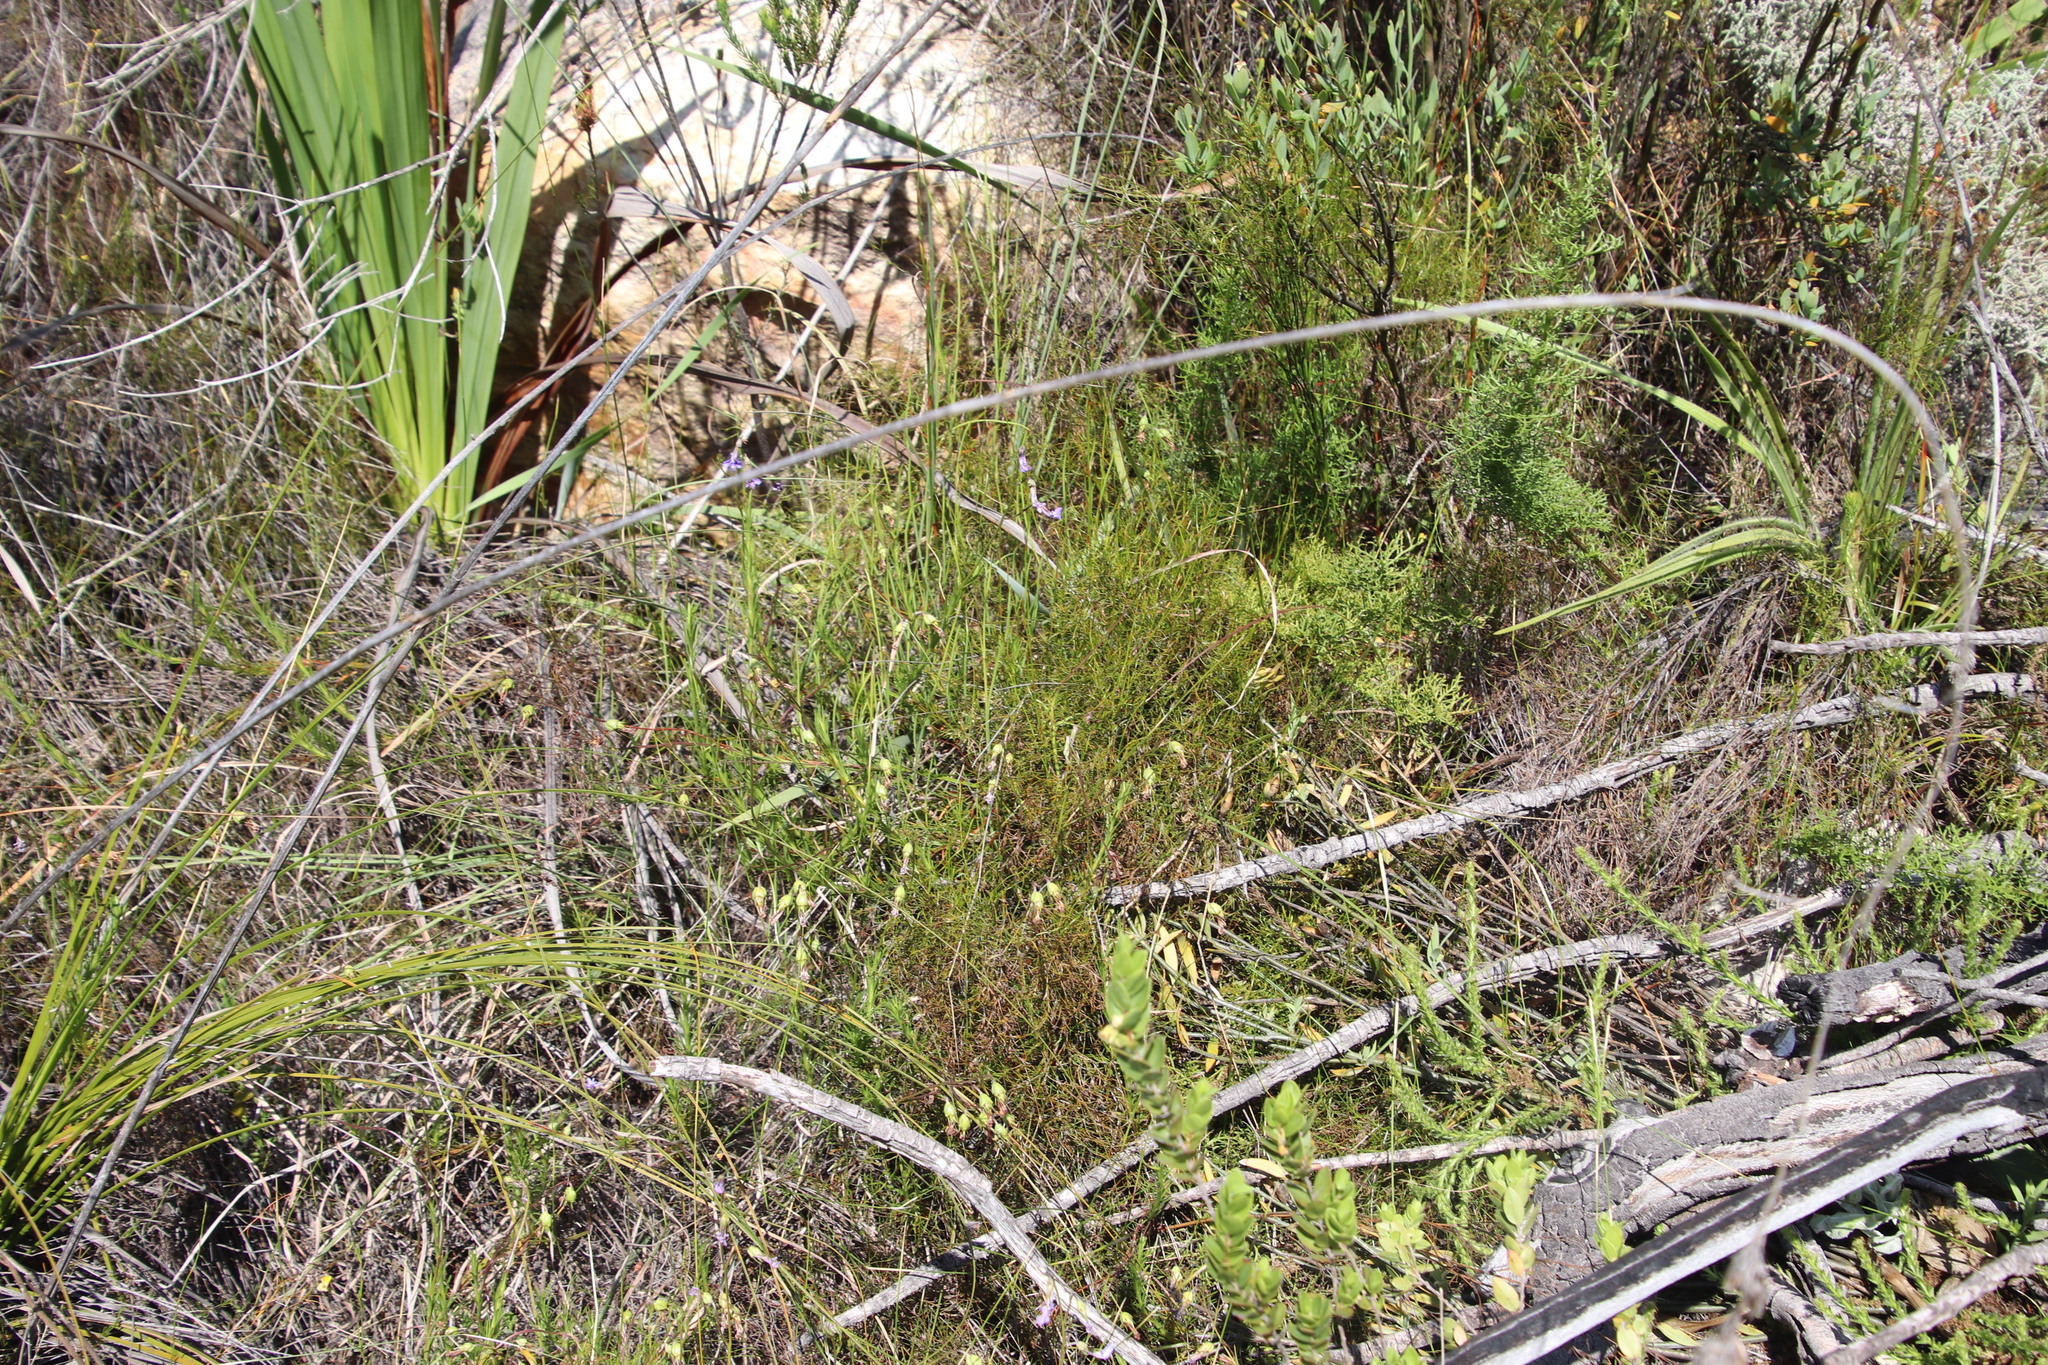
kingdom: Plantae
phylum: Tracheophyta
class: Magnoliopsida
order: Asterales
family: Campanulaceae
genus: Lobelia
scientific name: Lobelia pinifolia
